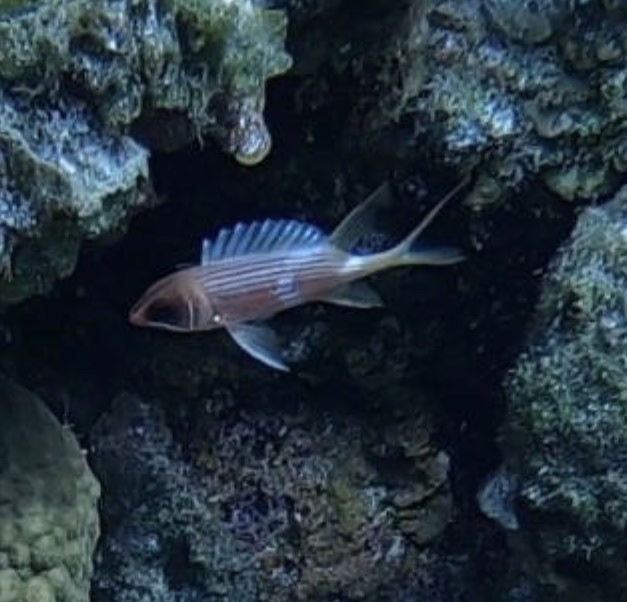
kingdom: Animalia
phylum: Chordata
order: Beryciformes
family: Holocentridae
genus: Holocentrus
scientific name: Holocentrus rufus
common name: Longspine squirrelfish
